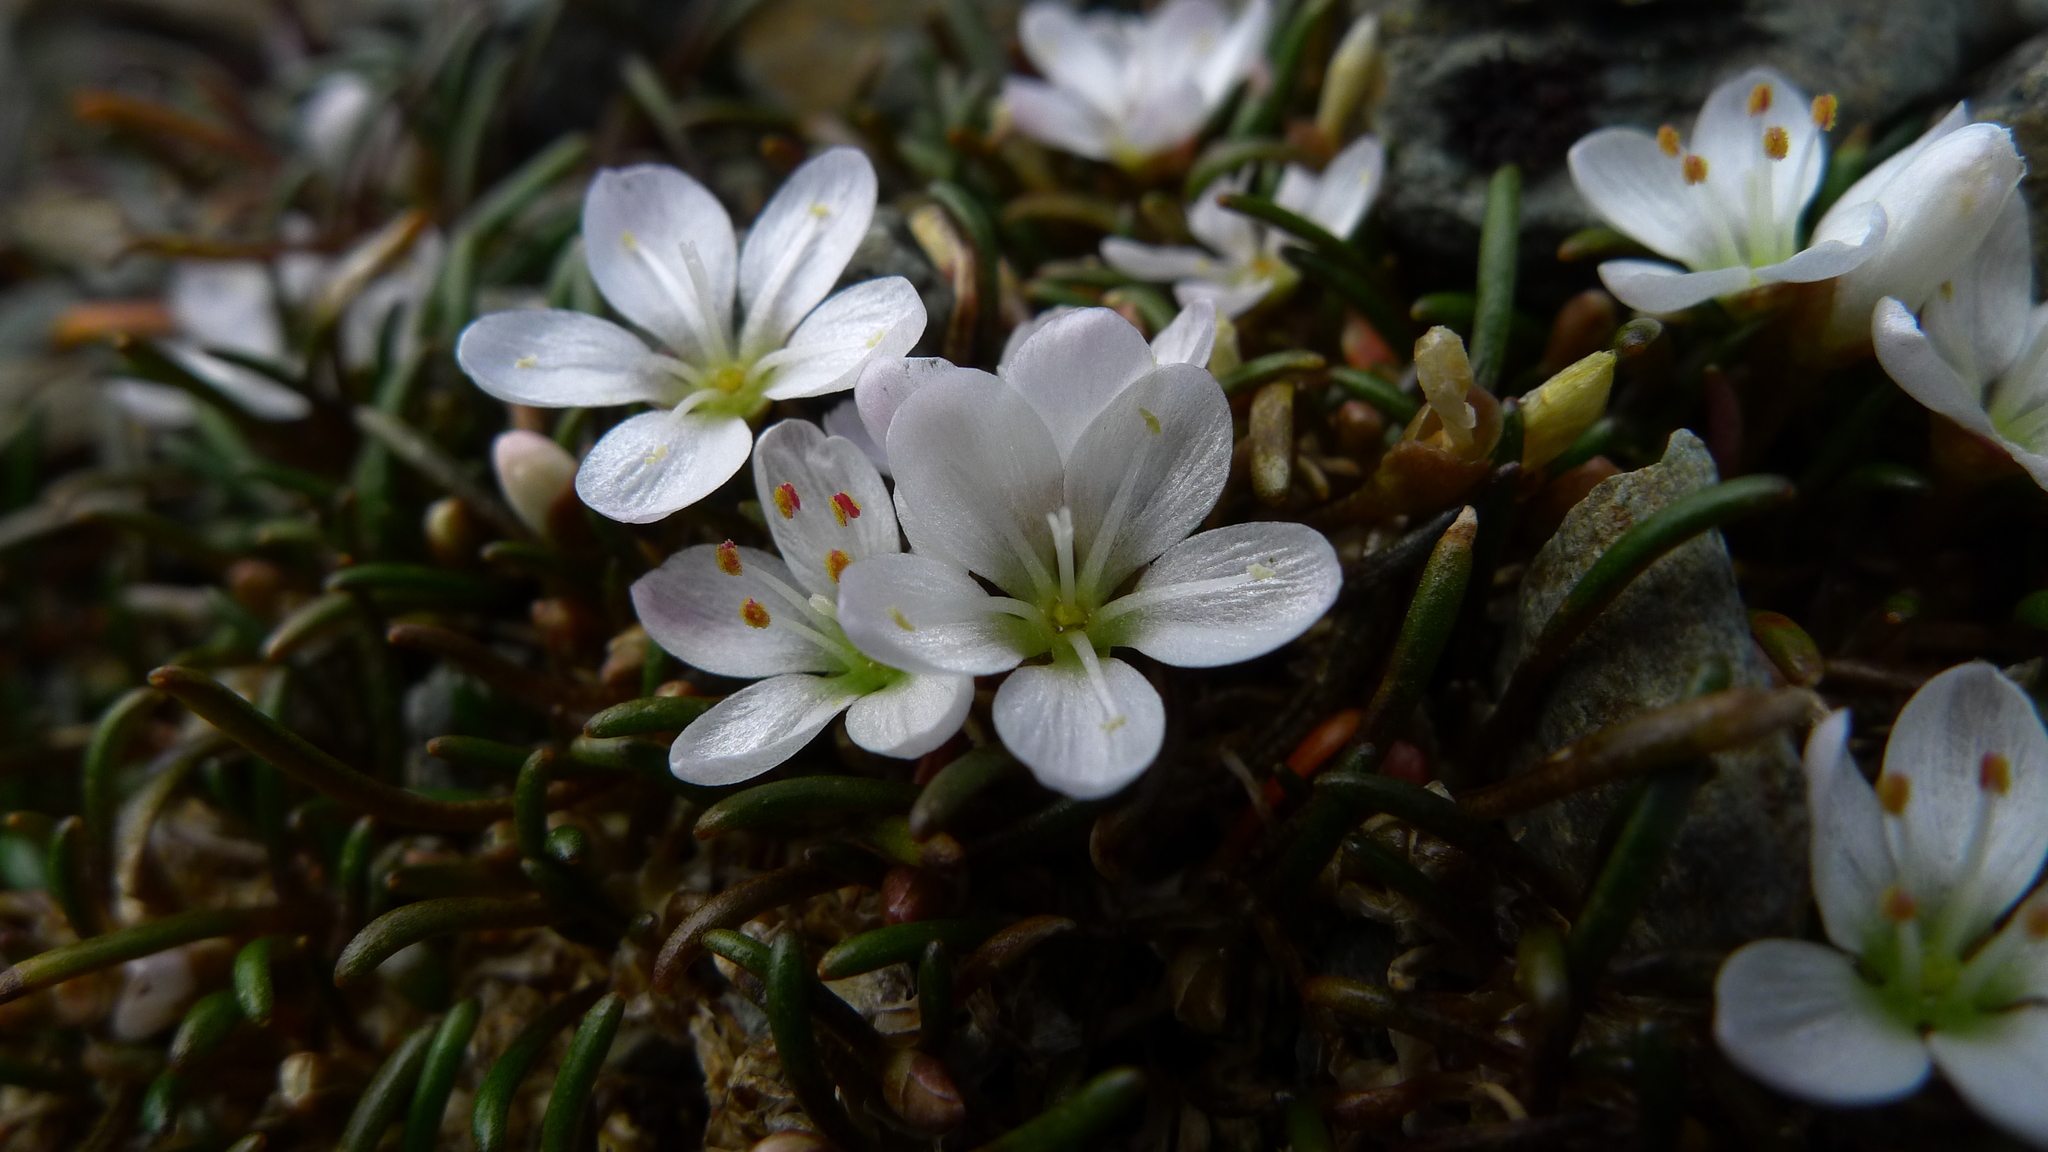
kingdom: Plantae
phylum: Tracheophyta
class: Magnoliopsida
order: Caryophyllales
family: Montiaceae
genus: Montia
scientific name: Montia calycina
